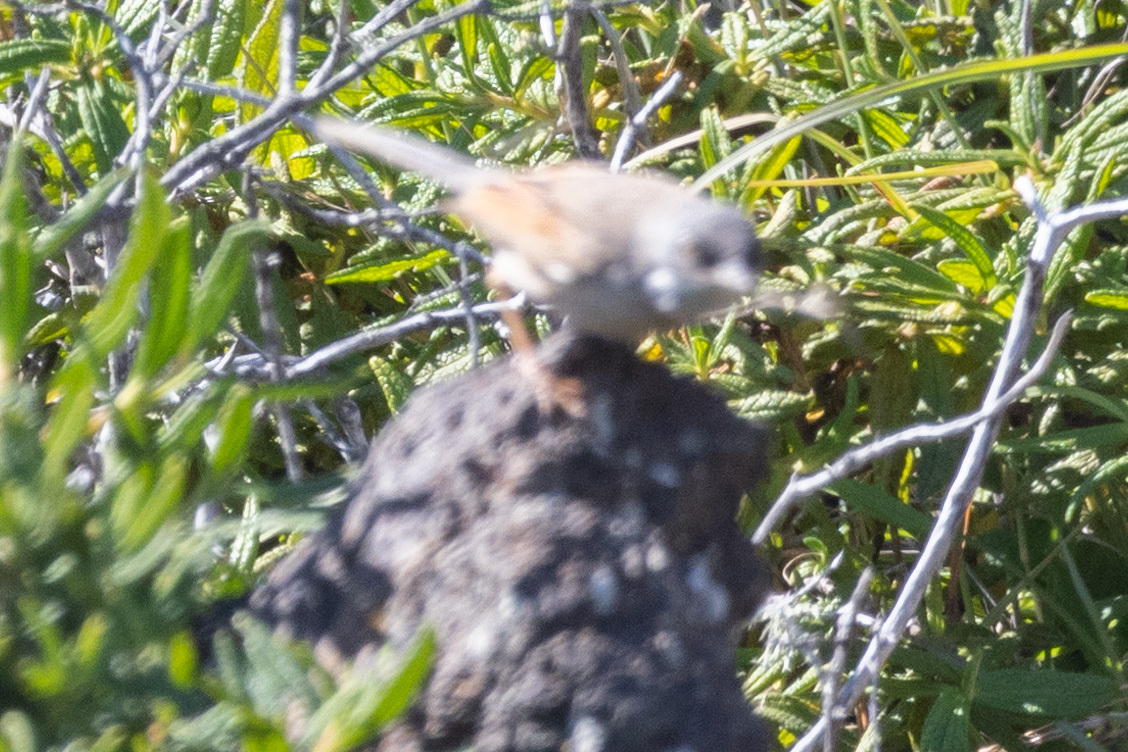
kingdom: Animalia
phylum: Chordata
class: Aves
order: Passeriformes
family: Sylviidae
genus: Sylvia
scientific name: Sylvia conspicillata
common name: Spectacled warbler
